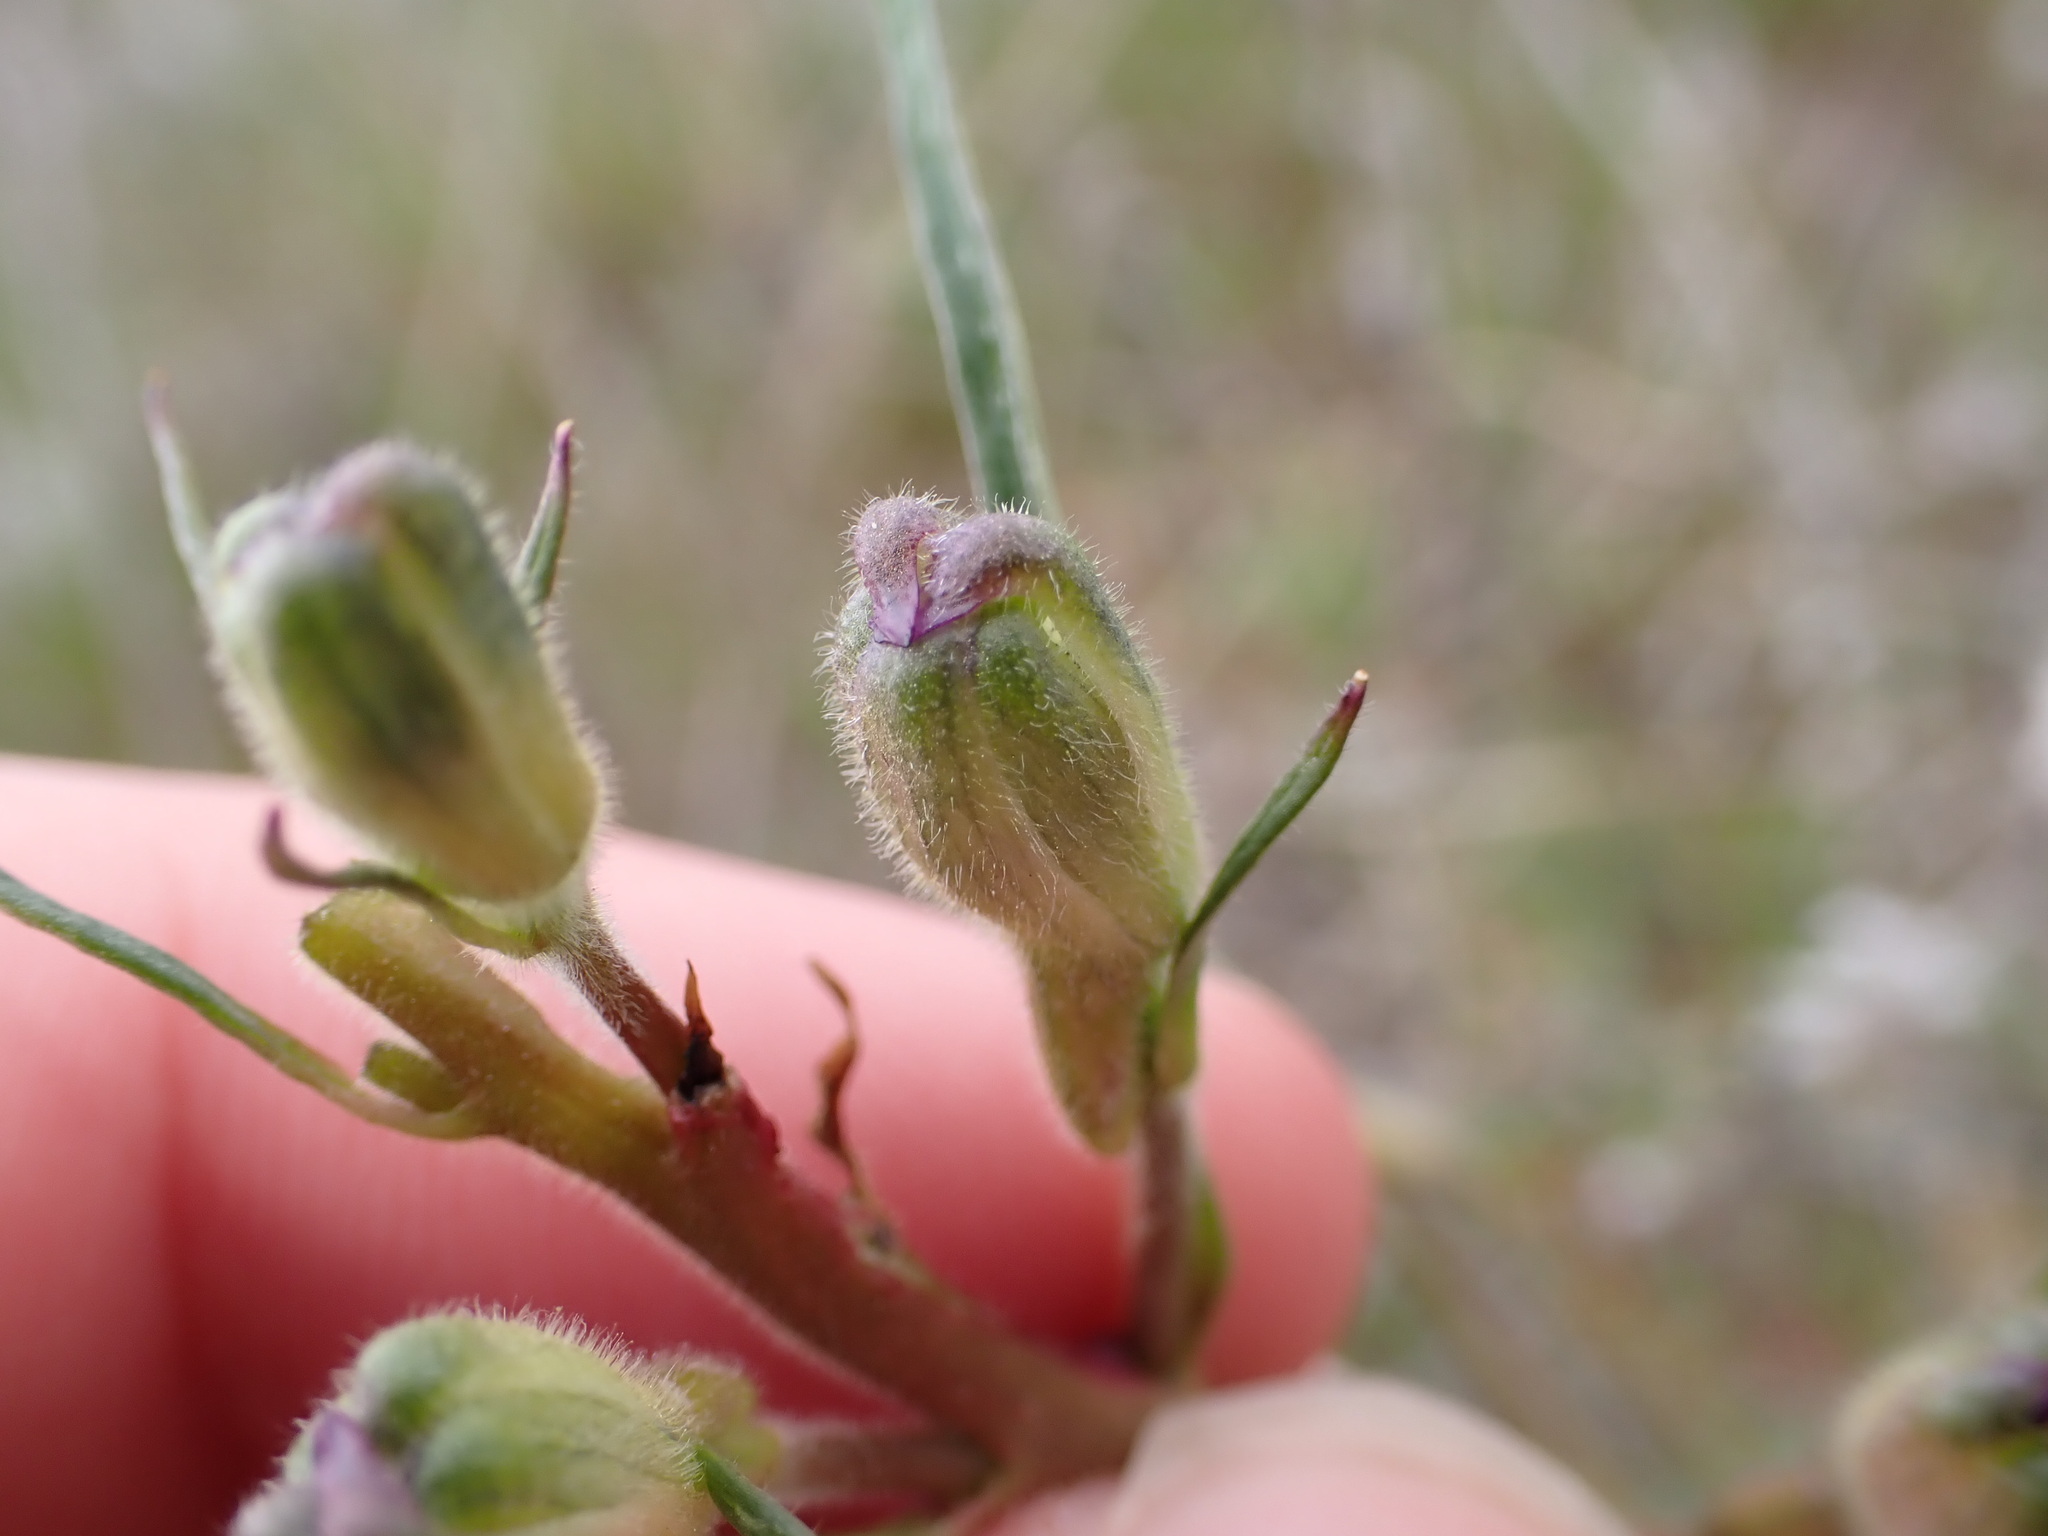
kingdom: Plantae
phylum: Tracheophyta
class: Magnoliopsida
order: Ranunculales
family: Ranunculaceae
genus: Delphinium
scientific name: Delphinium nuttallianum
